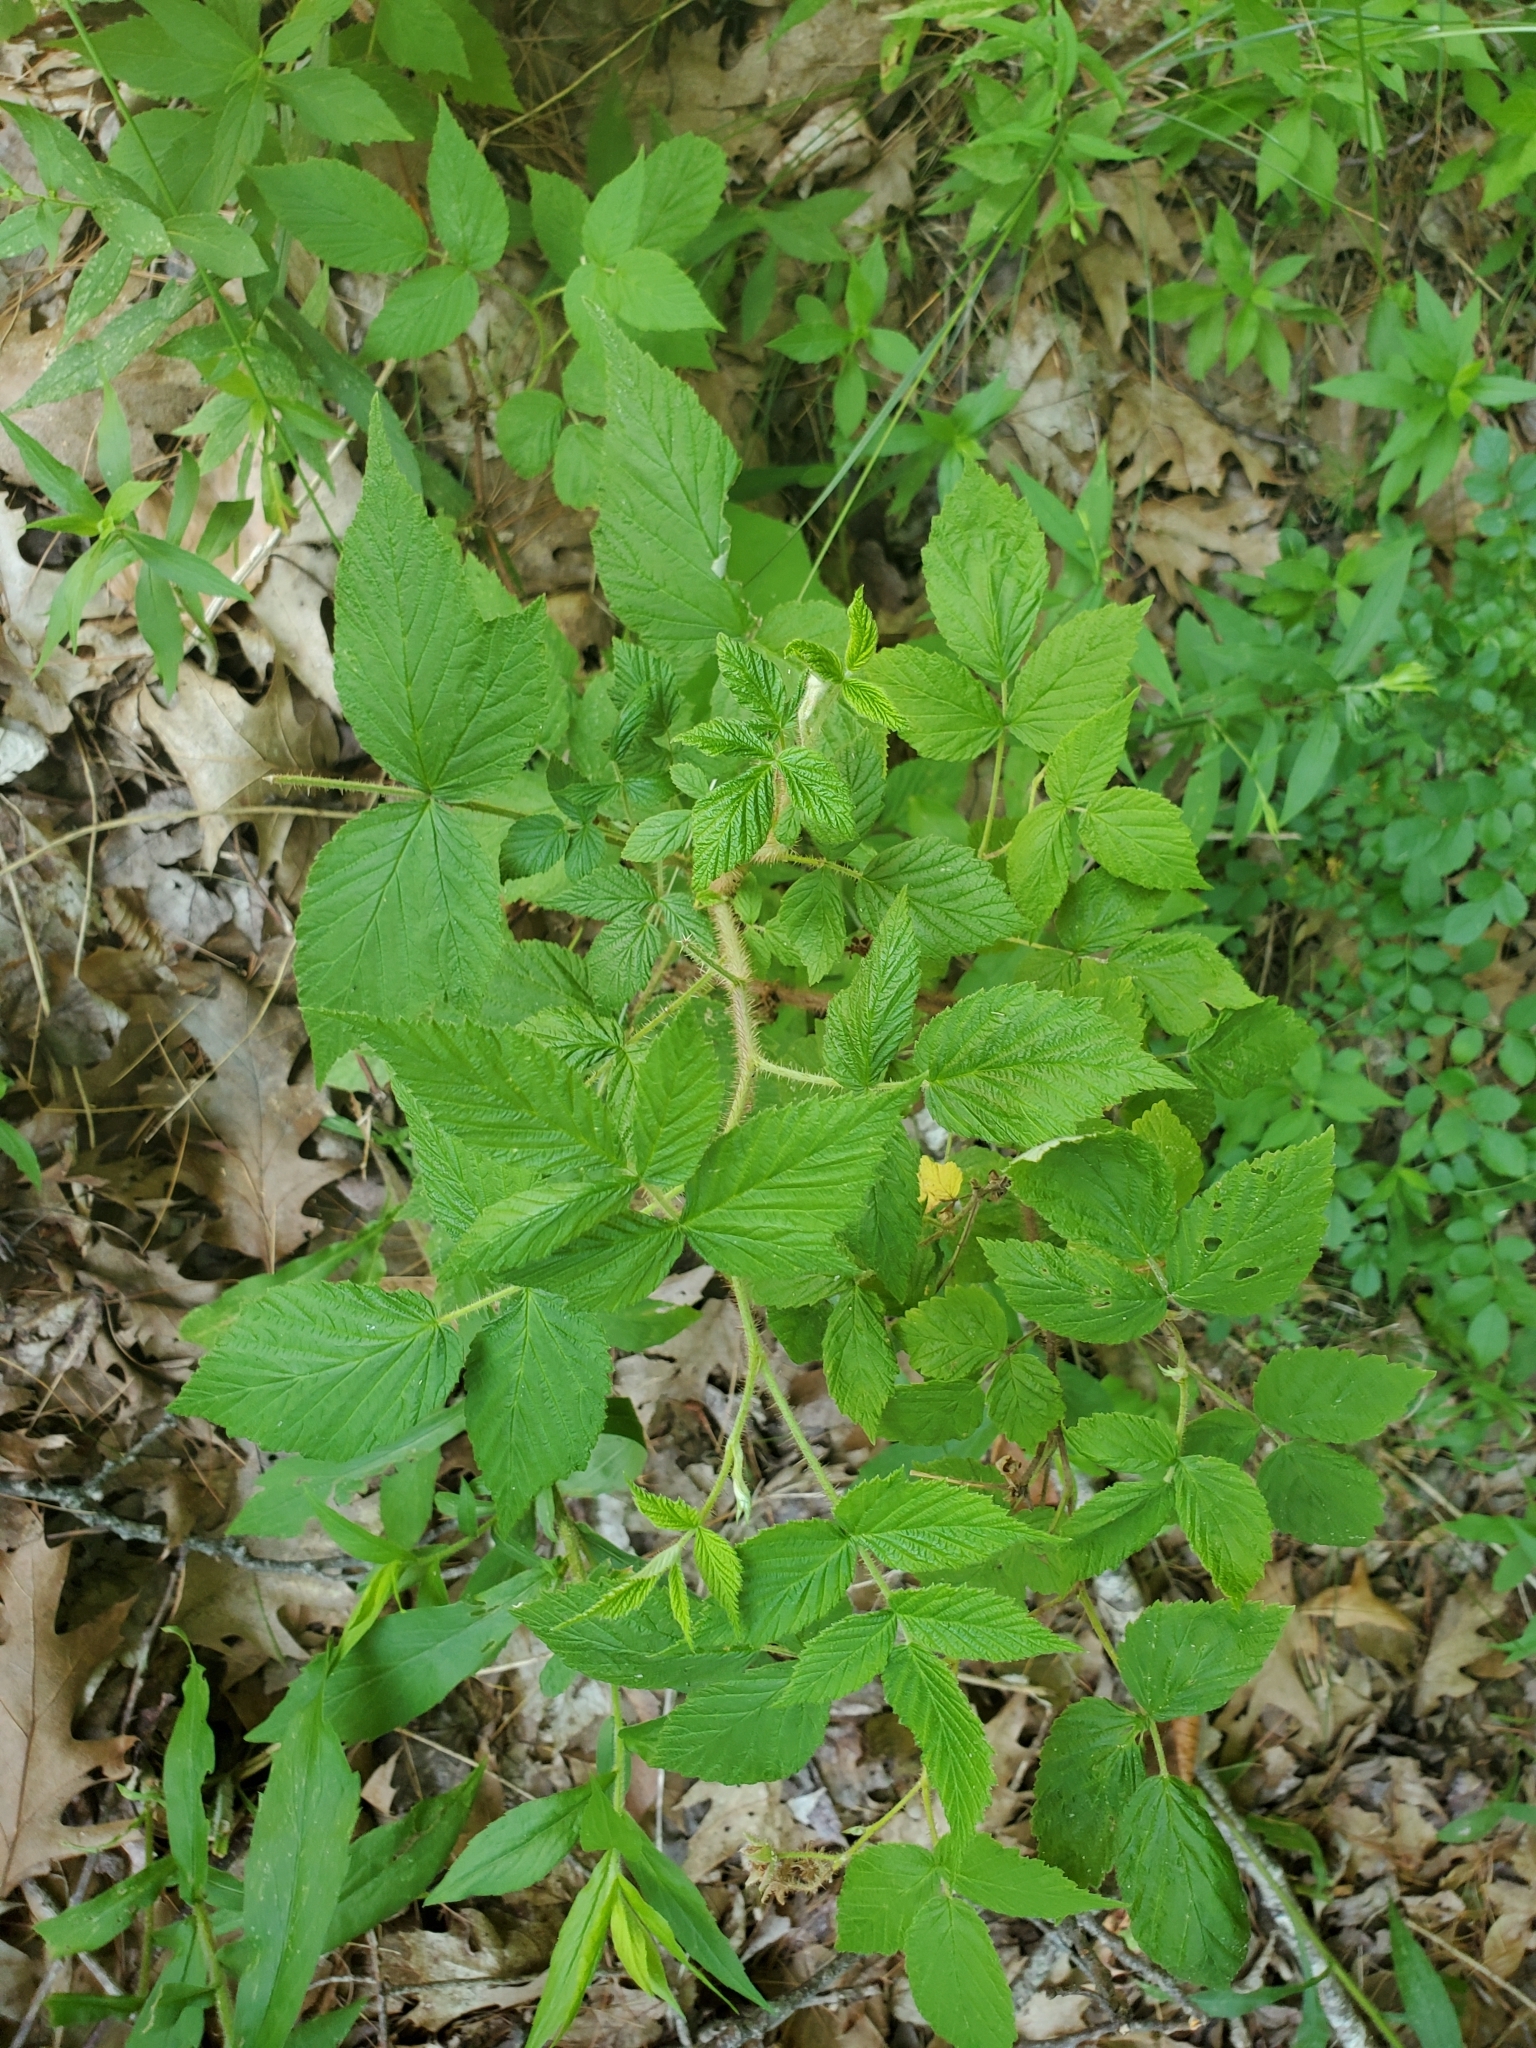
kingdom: Plantae
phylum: Tracheophyta
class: Magnoliopsida
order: Rosales
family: Rosaceae
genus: Rubus
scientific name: Rubus idaeus
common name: Raspberry
